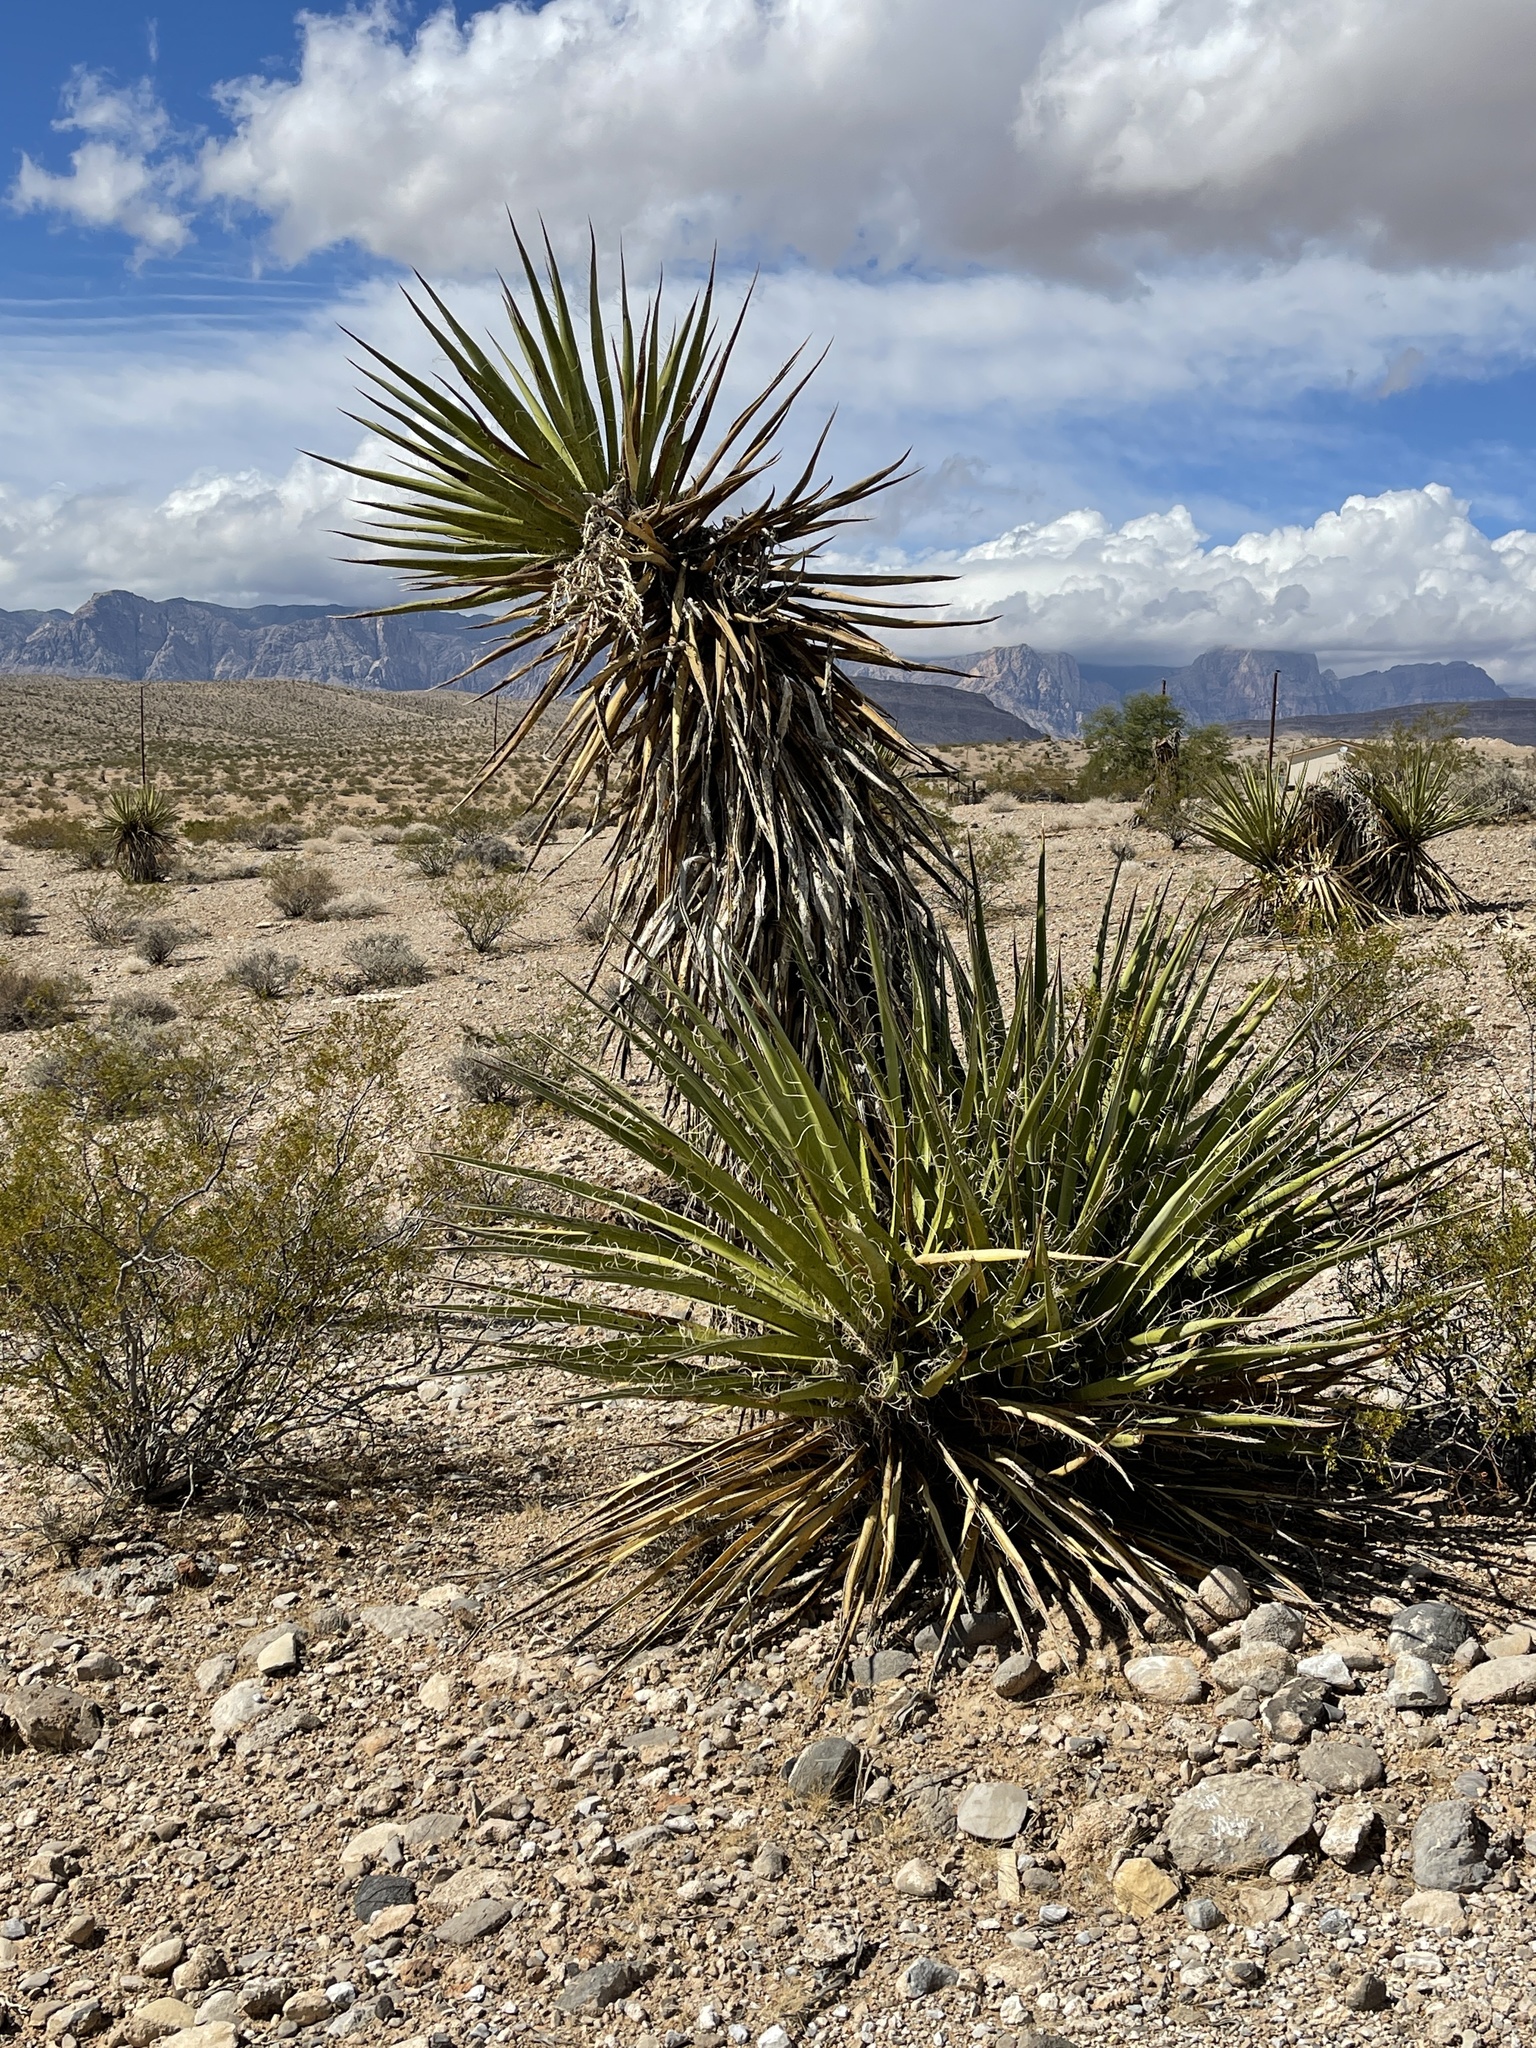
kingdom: Plantae
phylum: Tracheophyta
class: Liliopsida
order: Asparagales
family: Asparagaceae
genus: Yucca
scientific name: Yucca schidigera
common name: Mojave yucca
